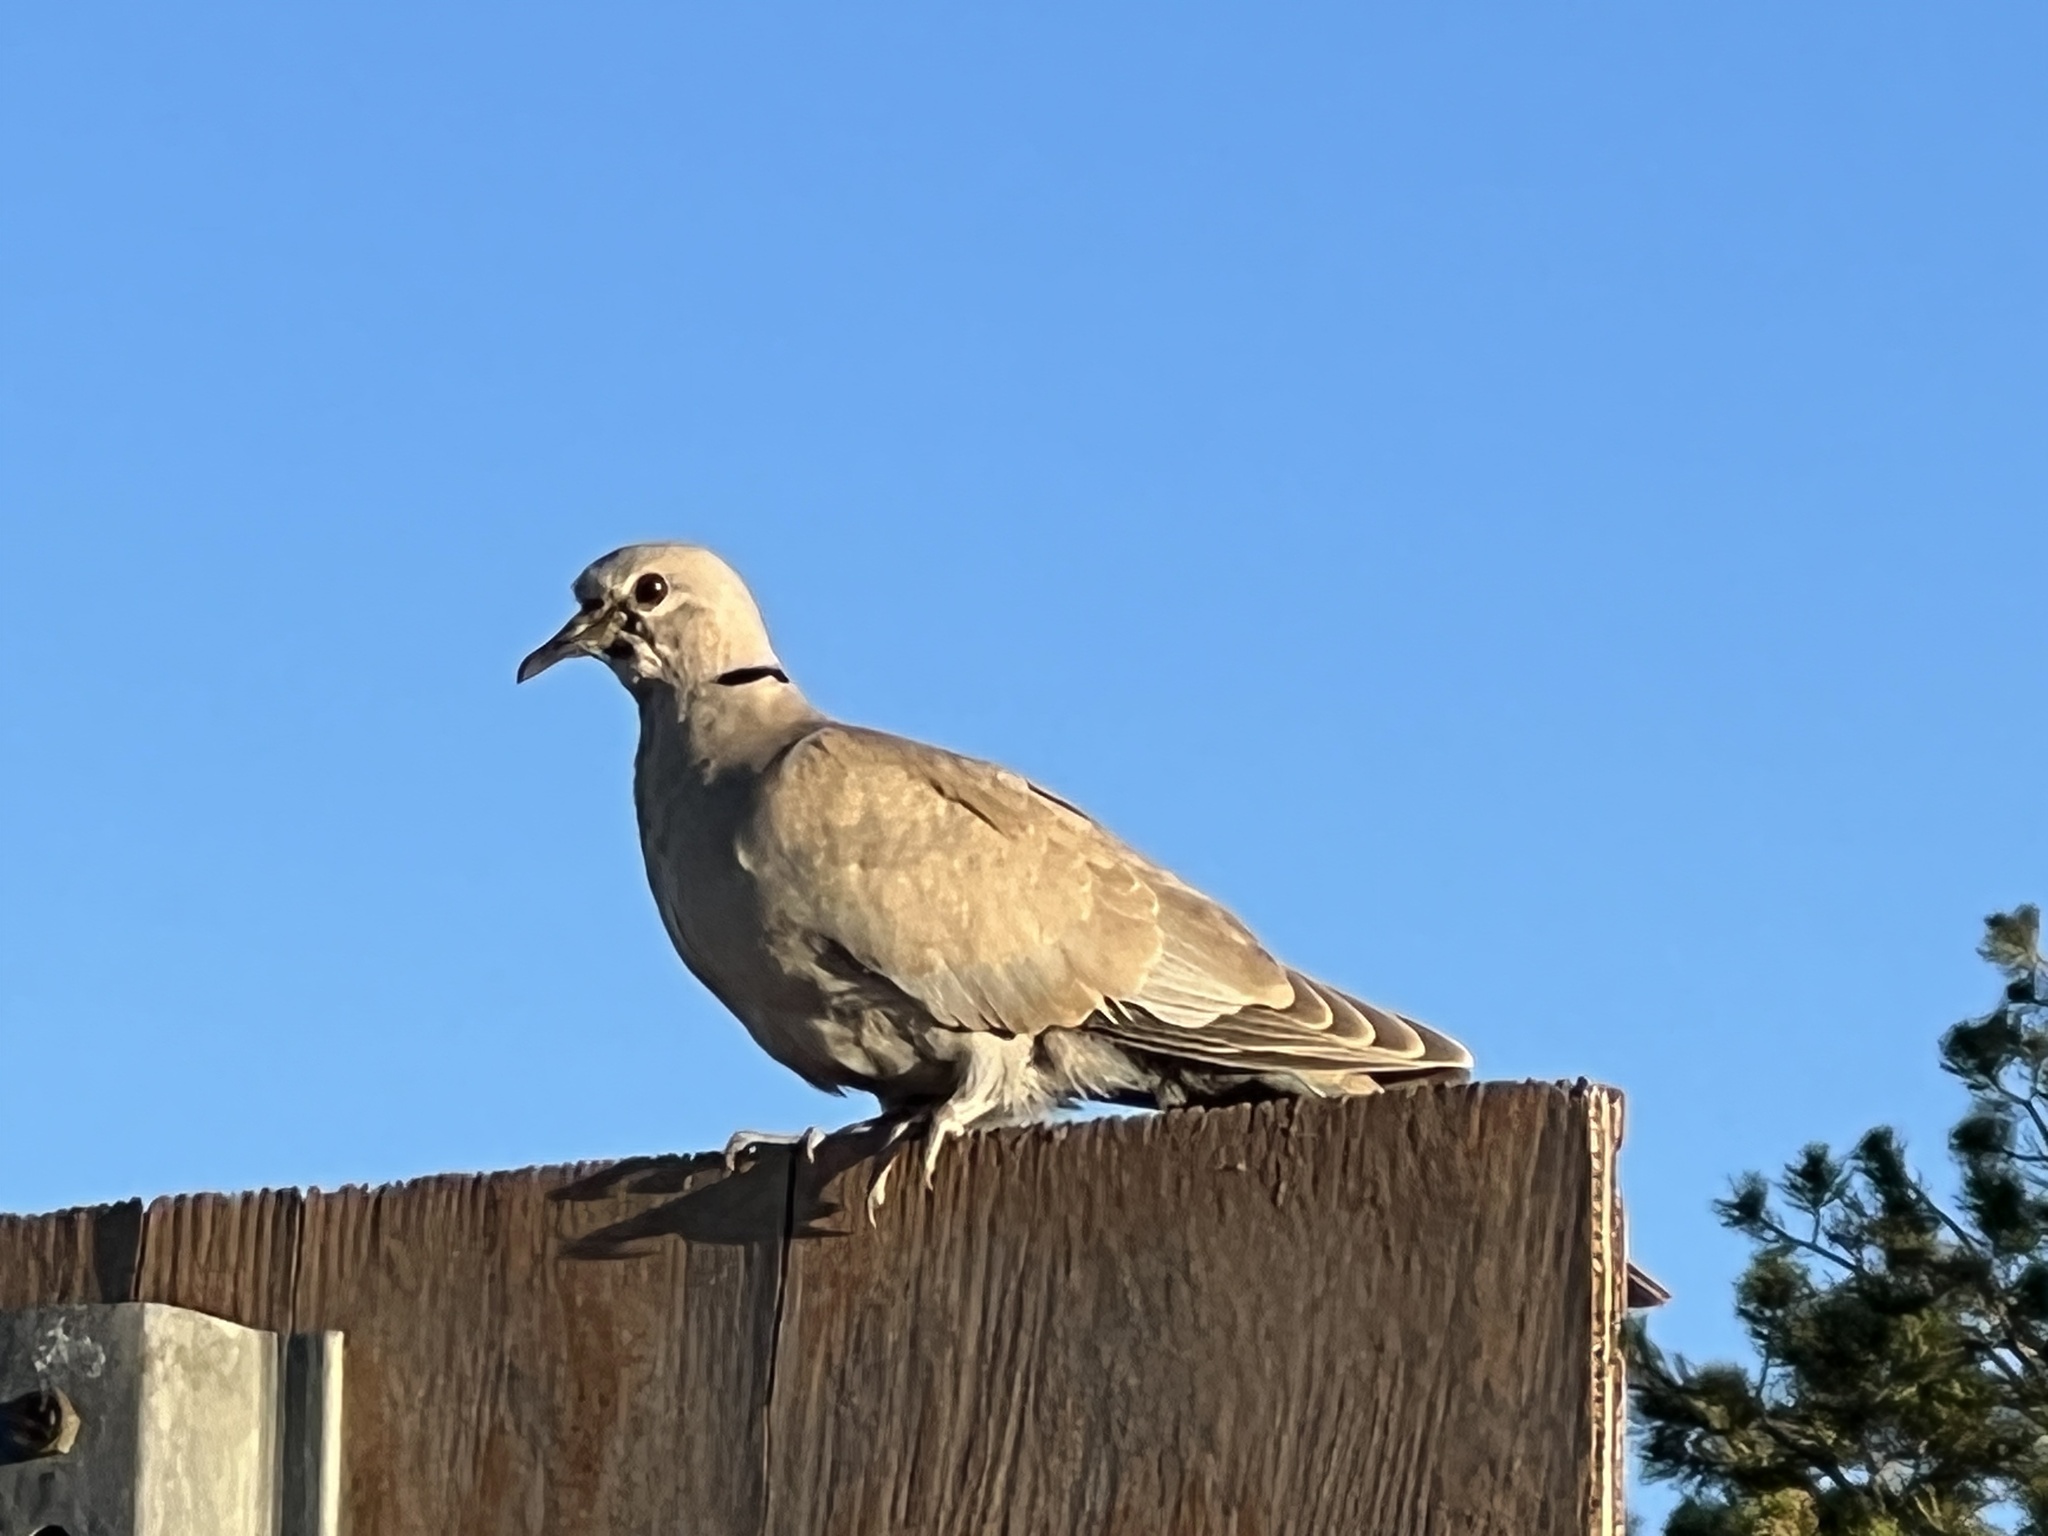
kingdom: Animalia
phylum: Chordata
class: Aves
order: Columbiformes
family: Columbidae
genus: Streptopelia
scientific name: Streptopelia decaocto
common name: Eurasian collared dove
